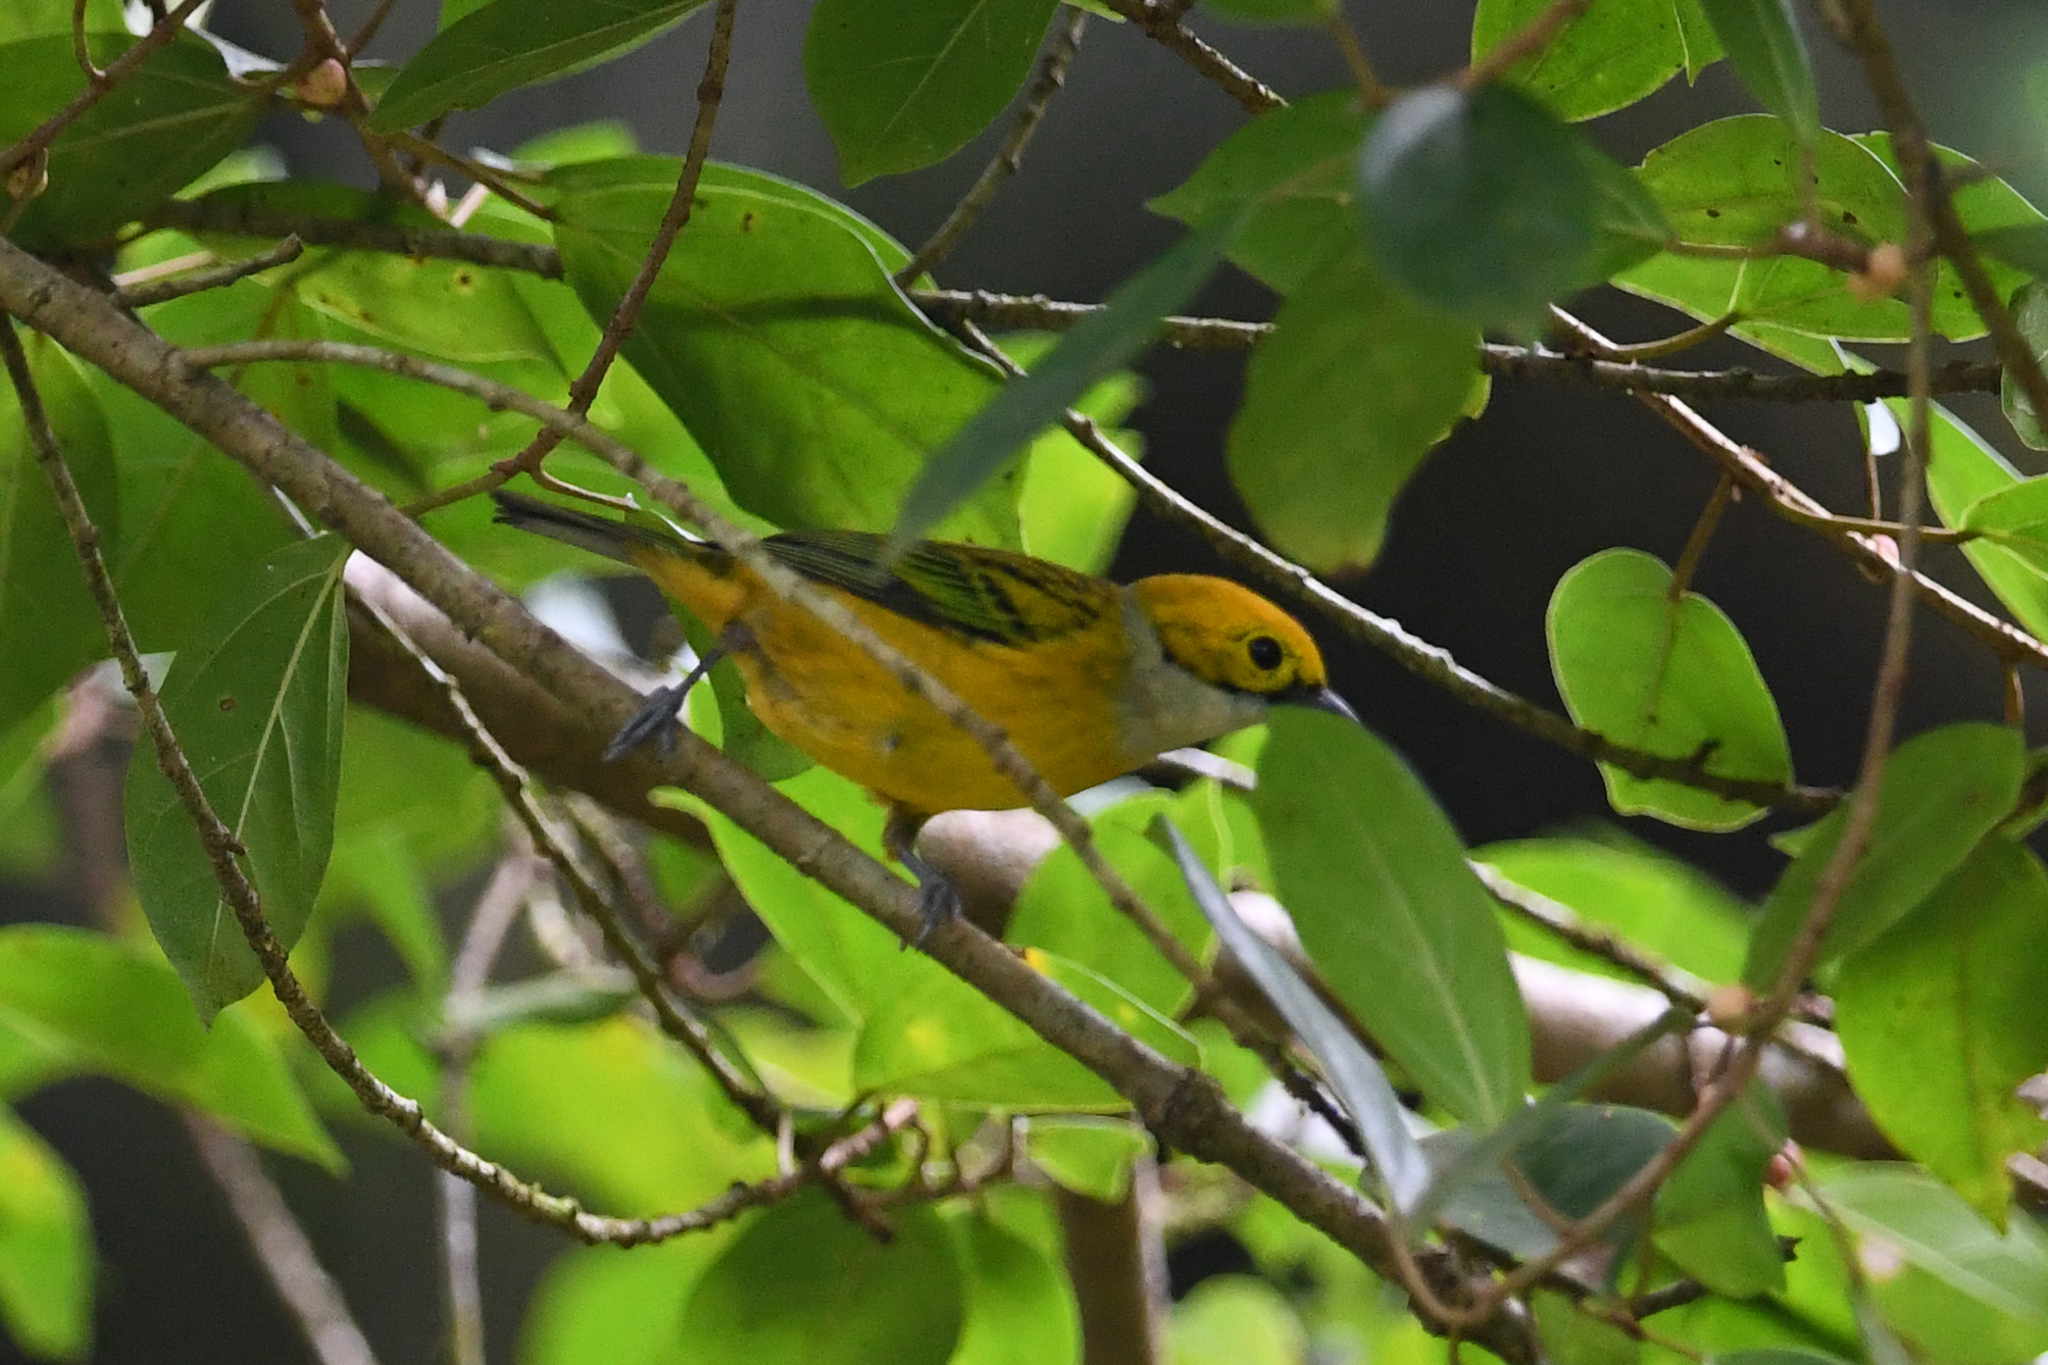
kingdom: Animalia
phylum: Chordata
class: Aves
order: Passeriformes
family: Thraupidae
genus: Tangara
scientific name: Tangara icterocephala
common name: Silver-throated tanager
